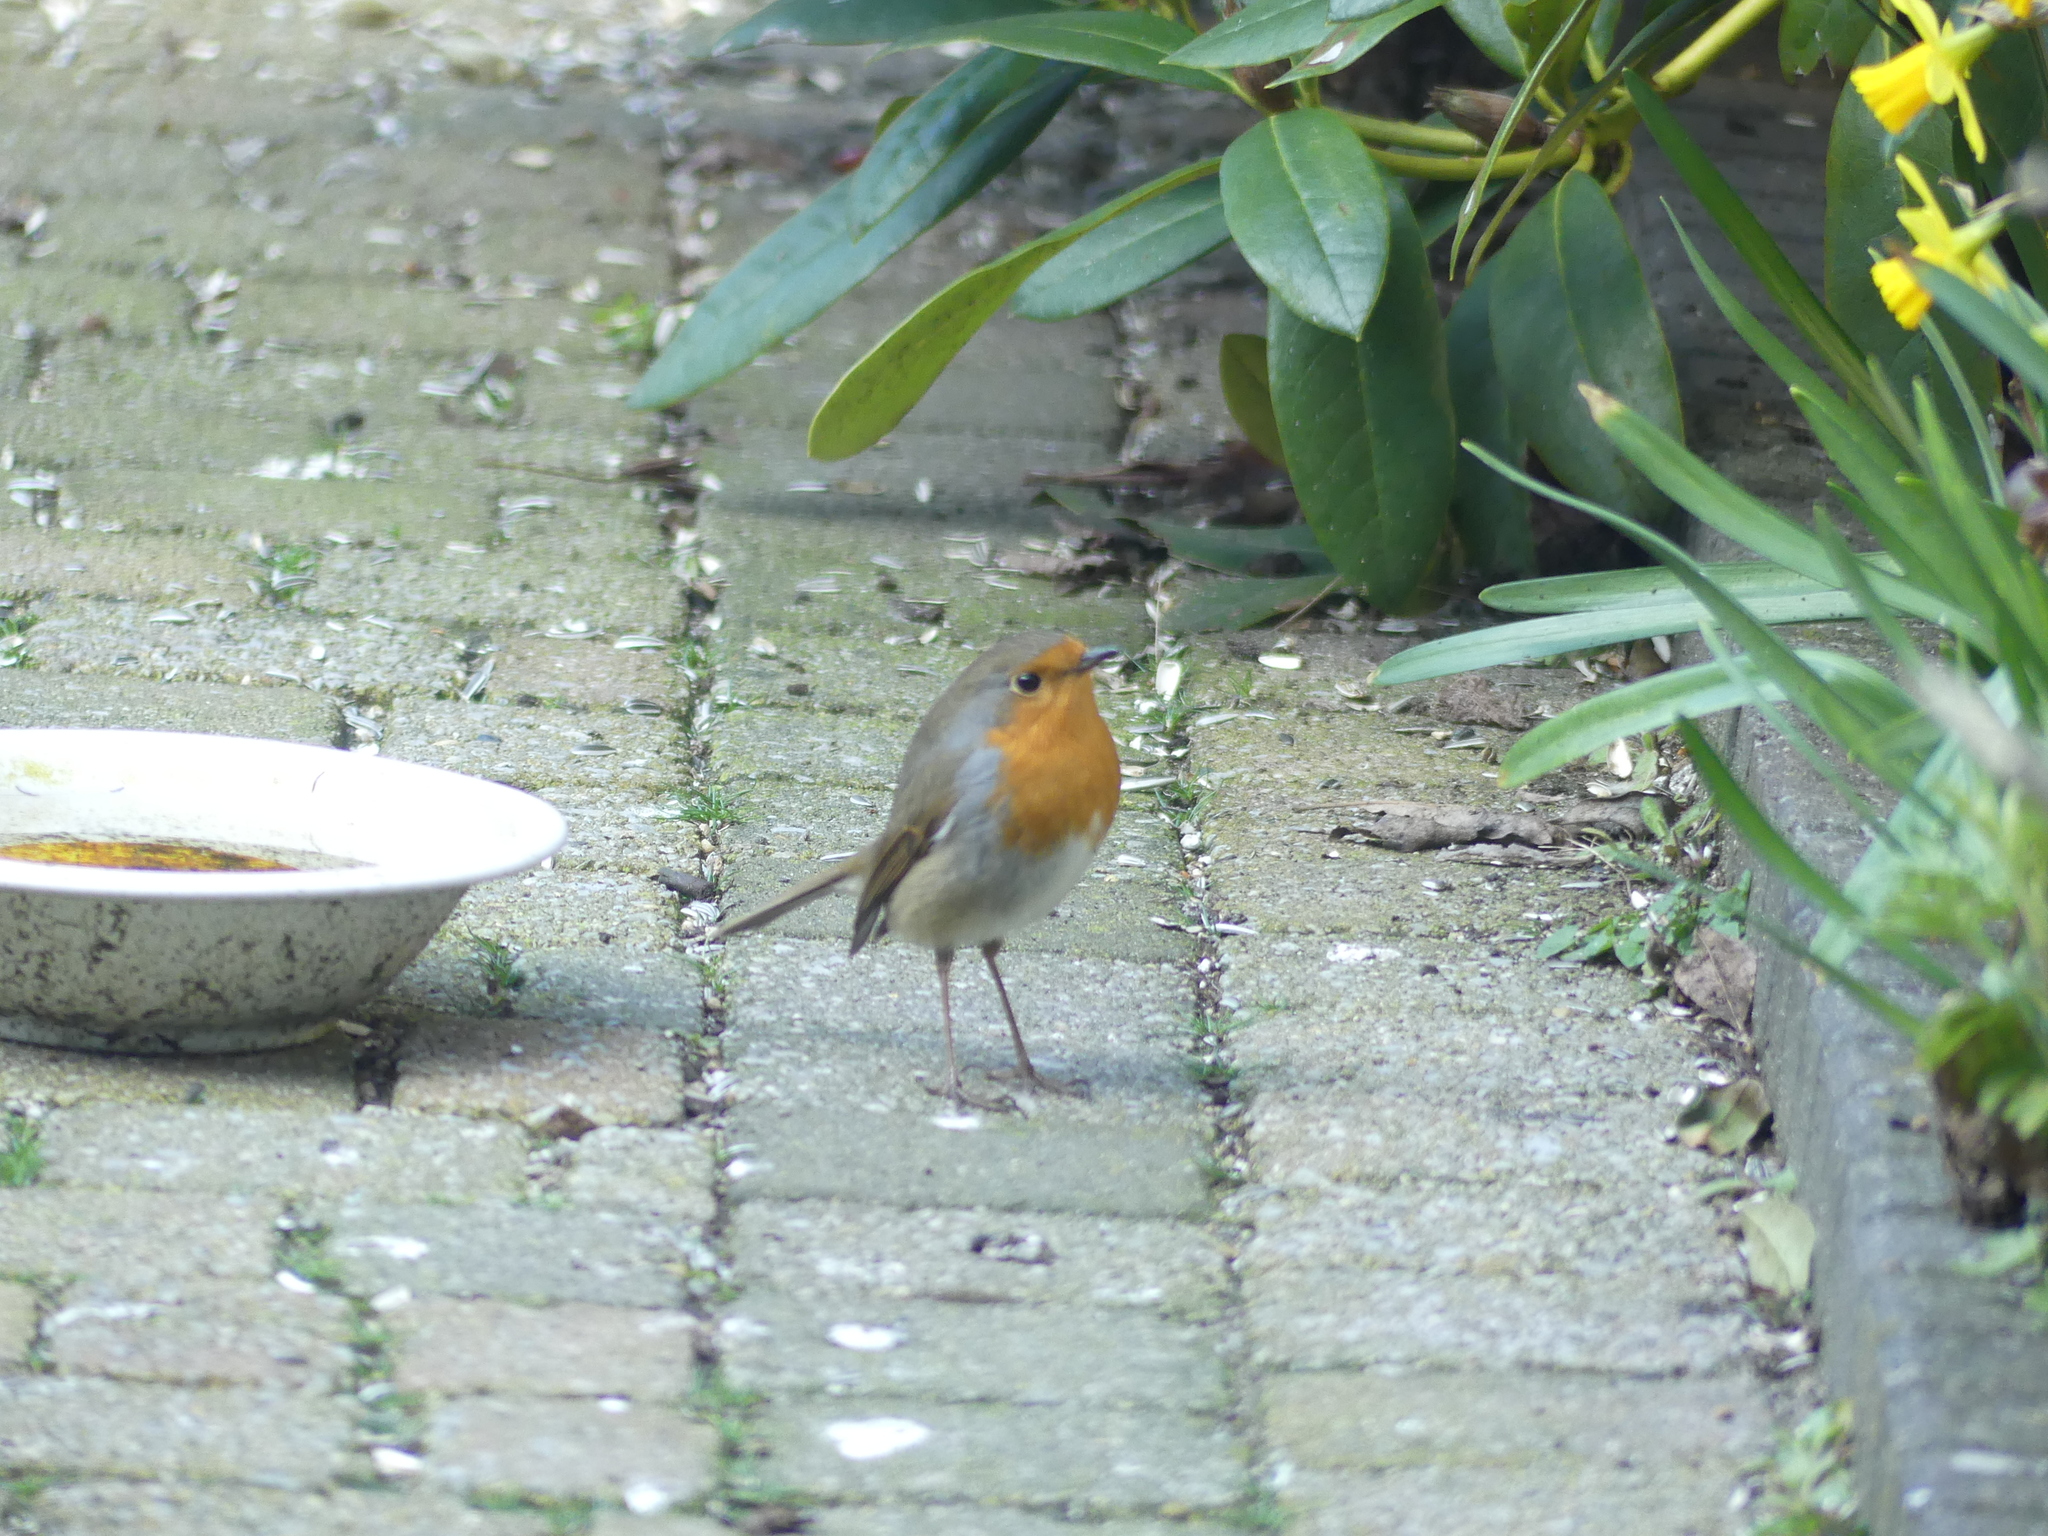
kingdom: Animalia
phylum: Chordata
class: Aves
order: Passeriformes
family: Muscicapidae
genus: Erithacus
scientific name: Erithacus rubecula
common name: European robin
